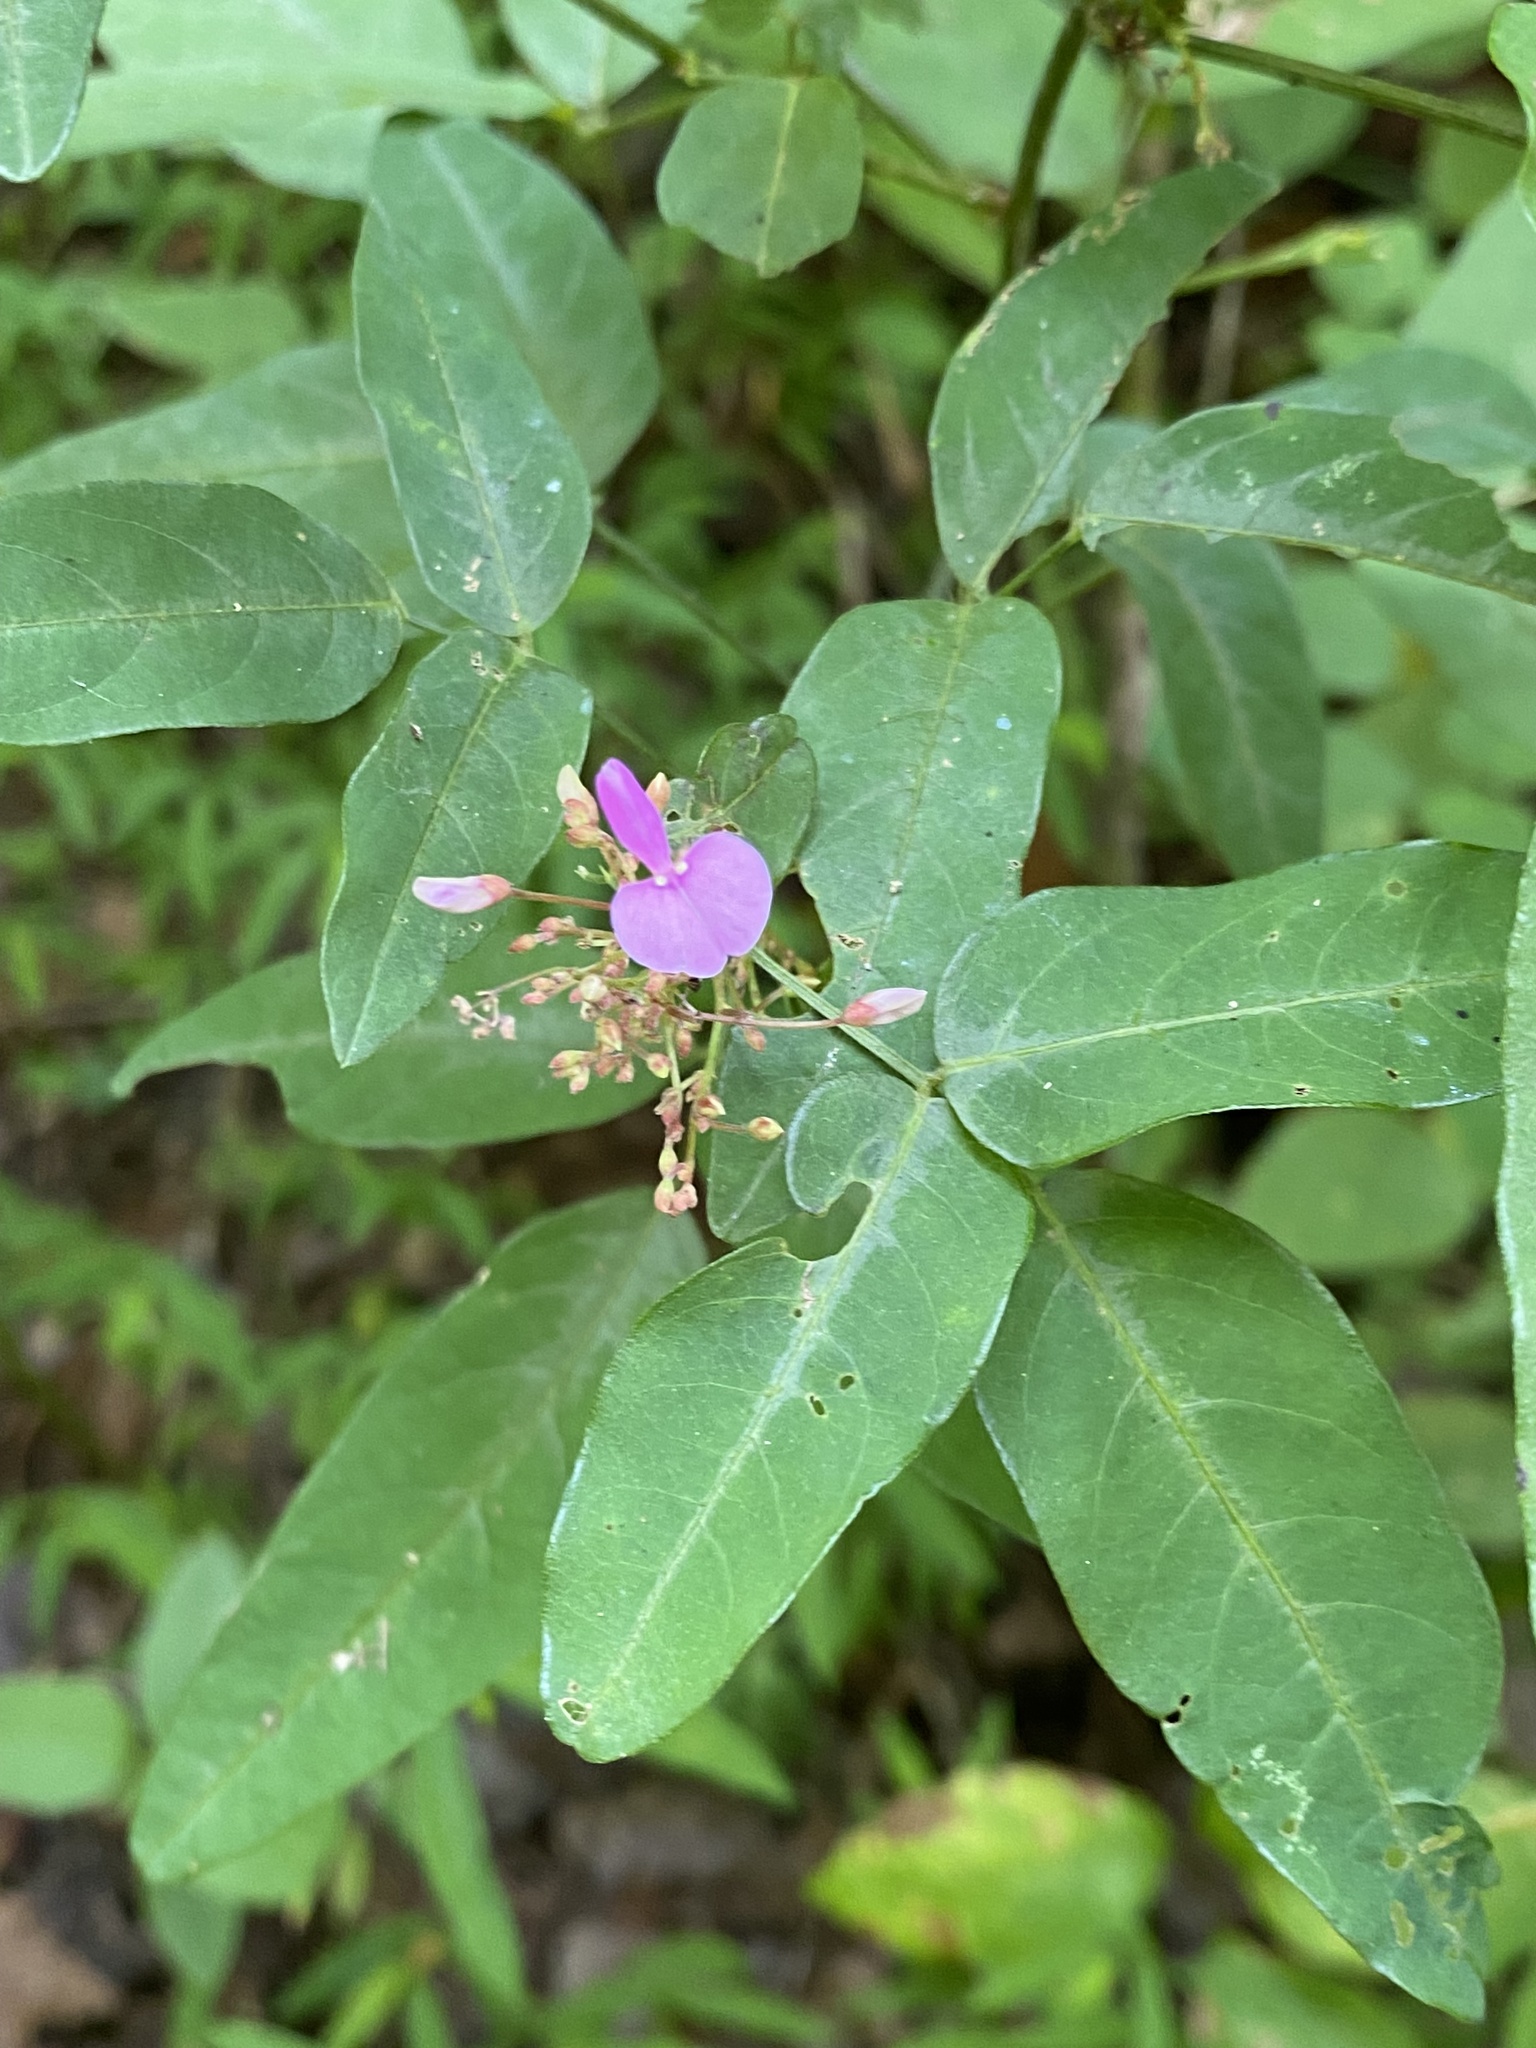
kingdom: Plantae
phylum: Tracheophyta
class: Magnoliopsida
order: Fabales
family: Fabaceae
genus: Desmodium
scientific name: Desmodium paniculatum
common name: Panicled tick-clover
